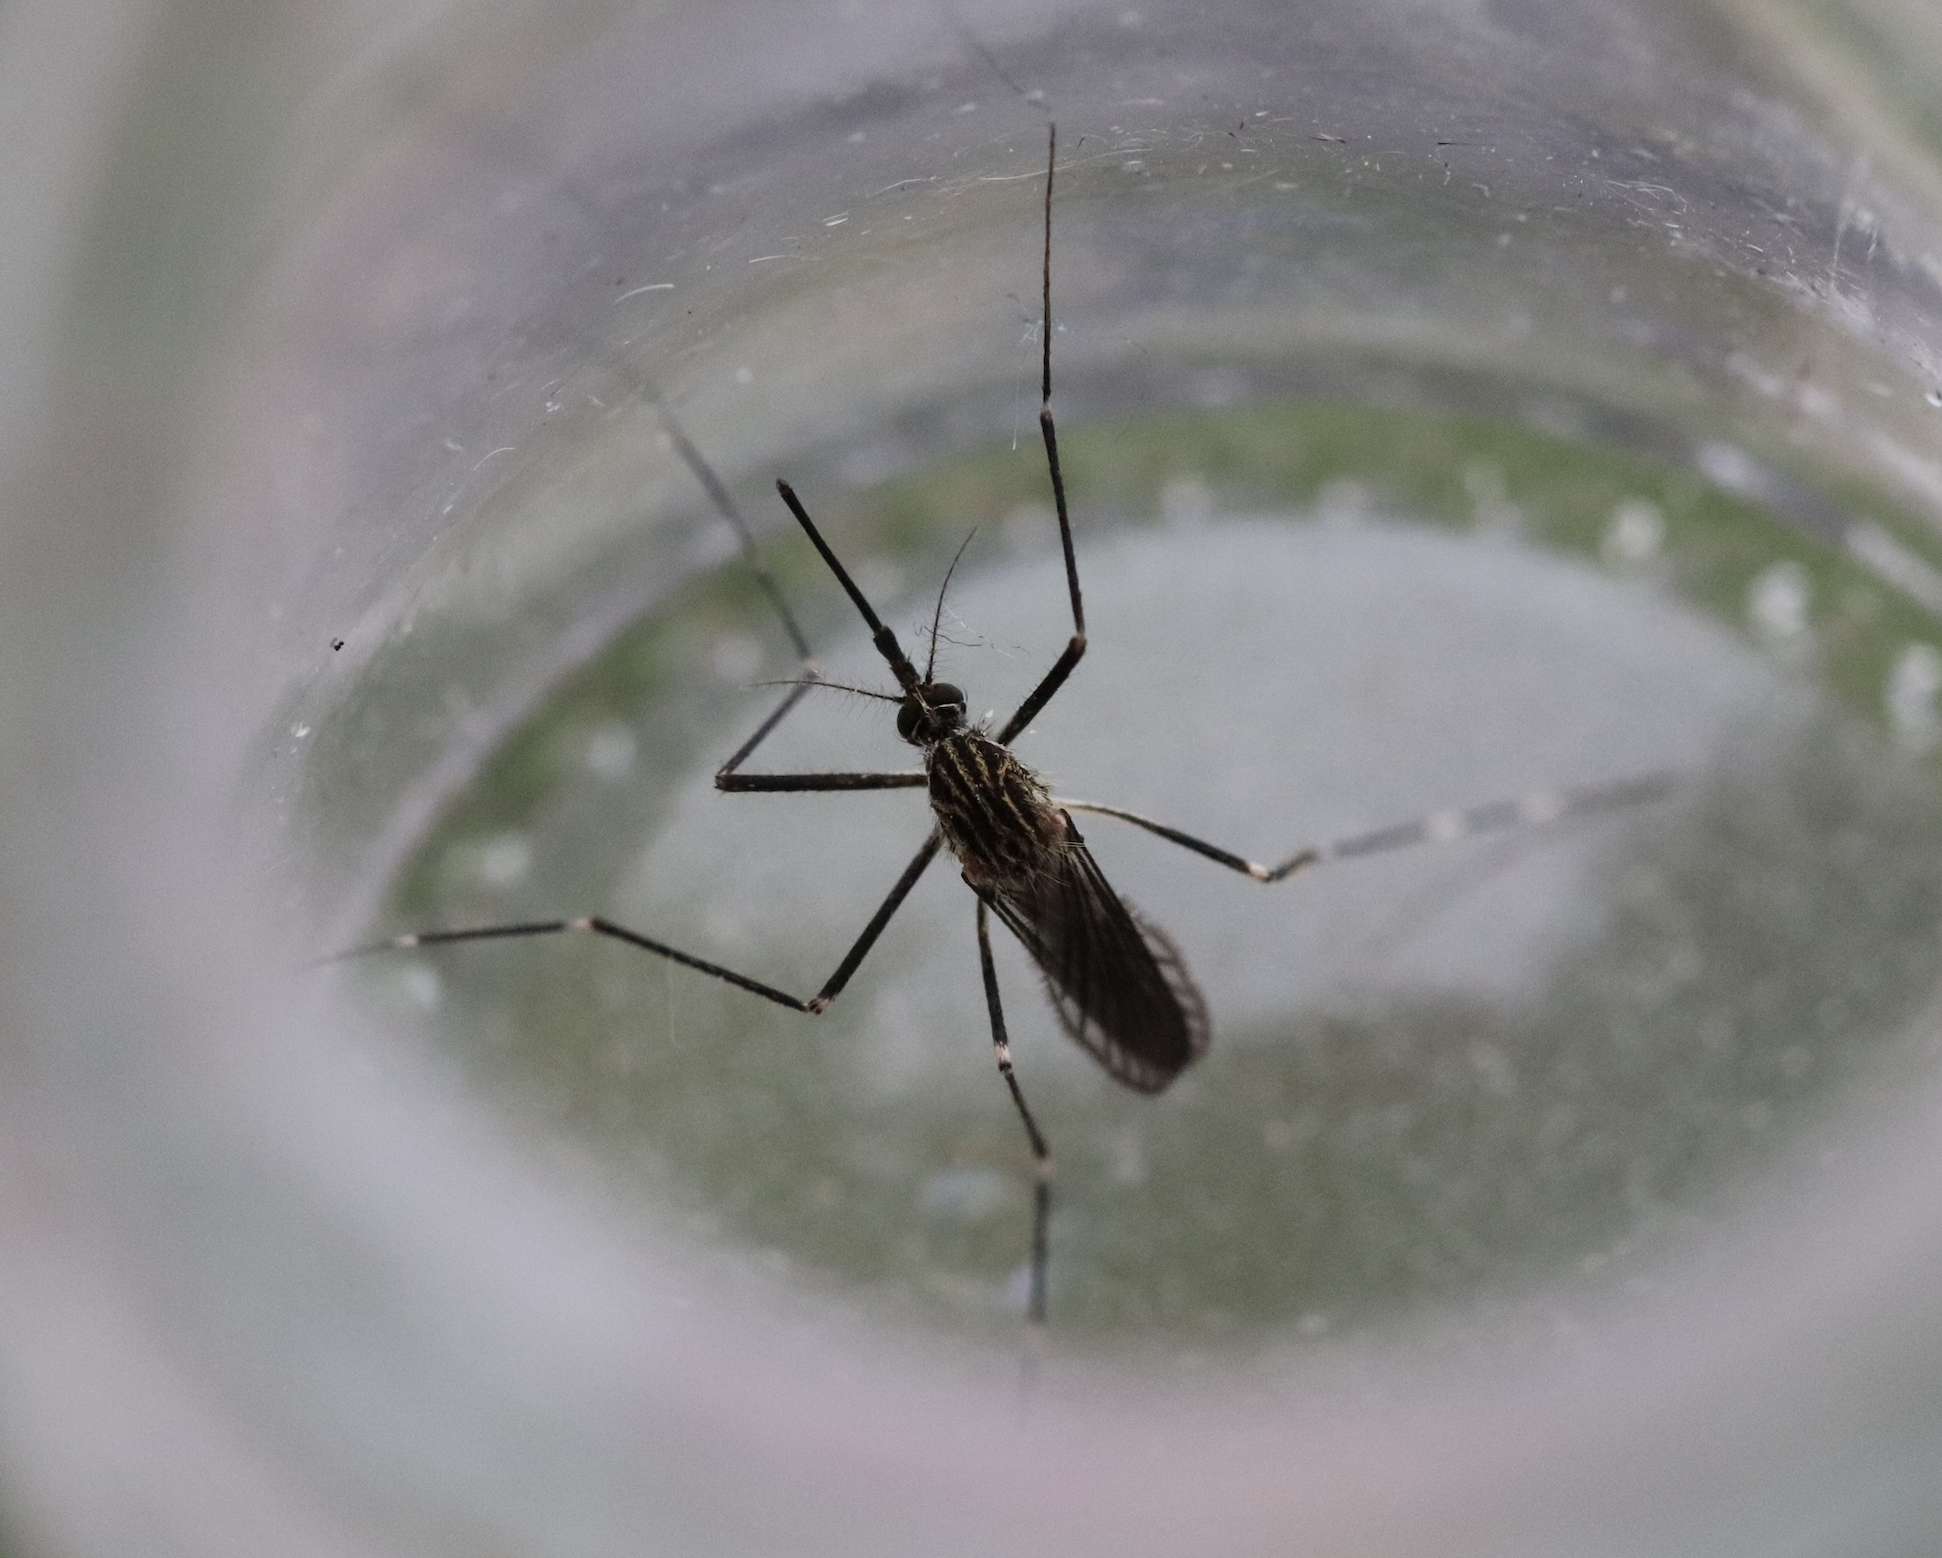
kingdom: Animalia
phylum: Arthropoda
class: Insecta
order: Diptera
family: Culicidae
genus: Aedes
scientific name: Aedes japonicus
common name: Asian bush mosquito
